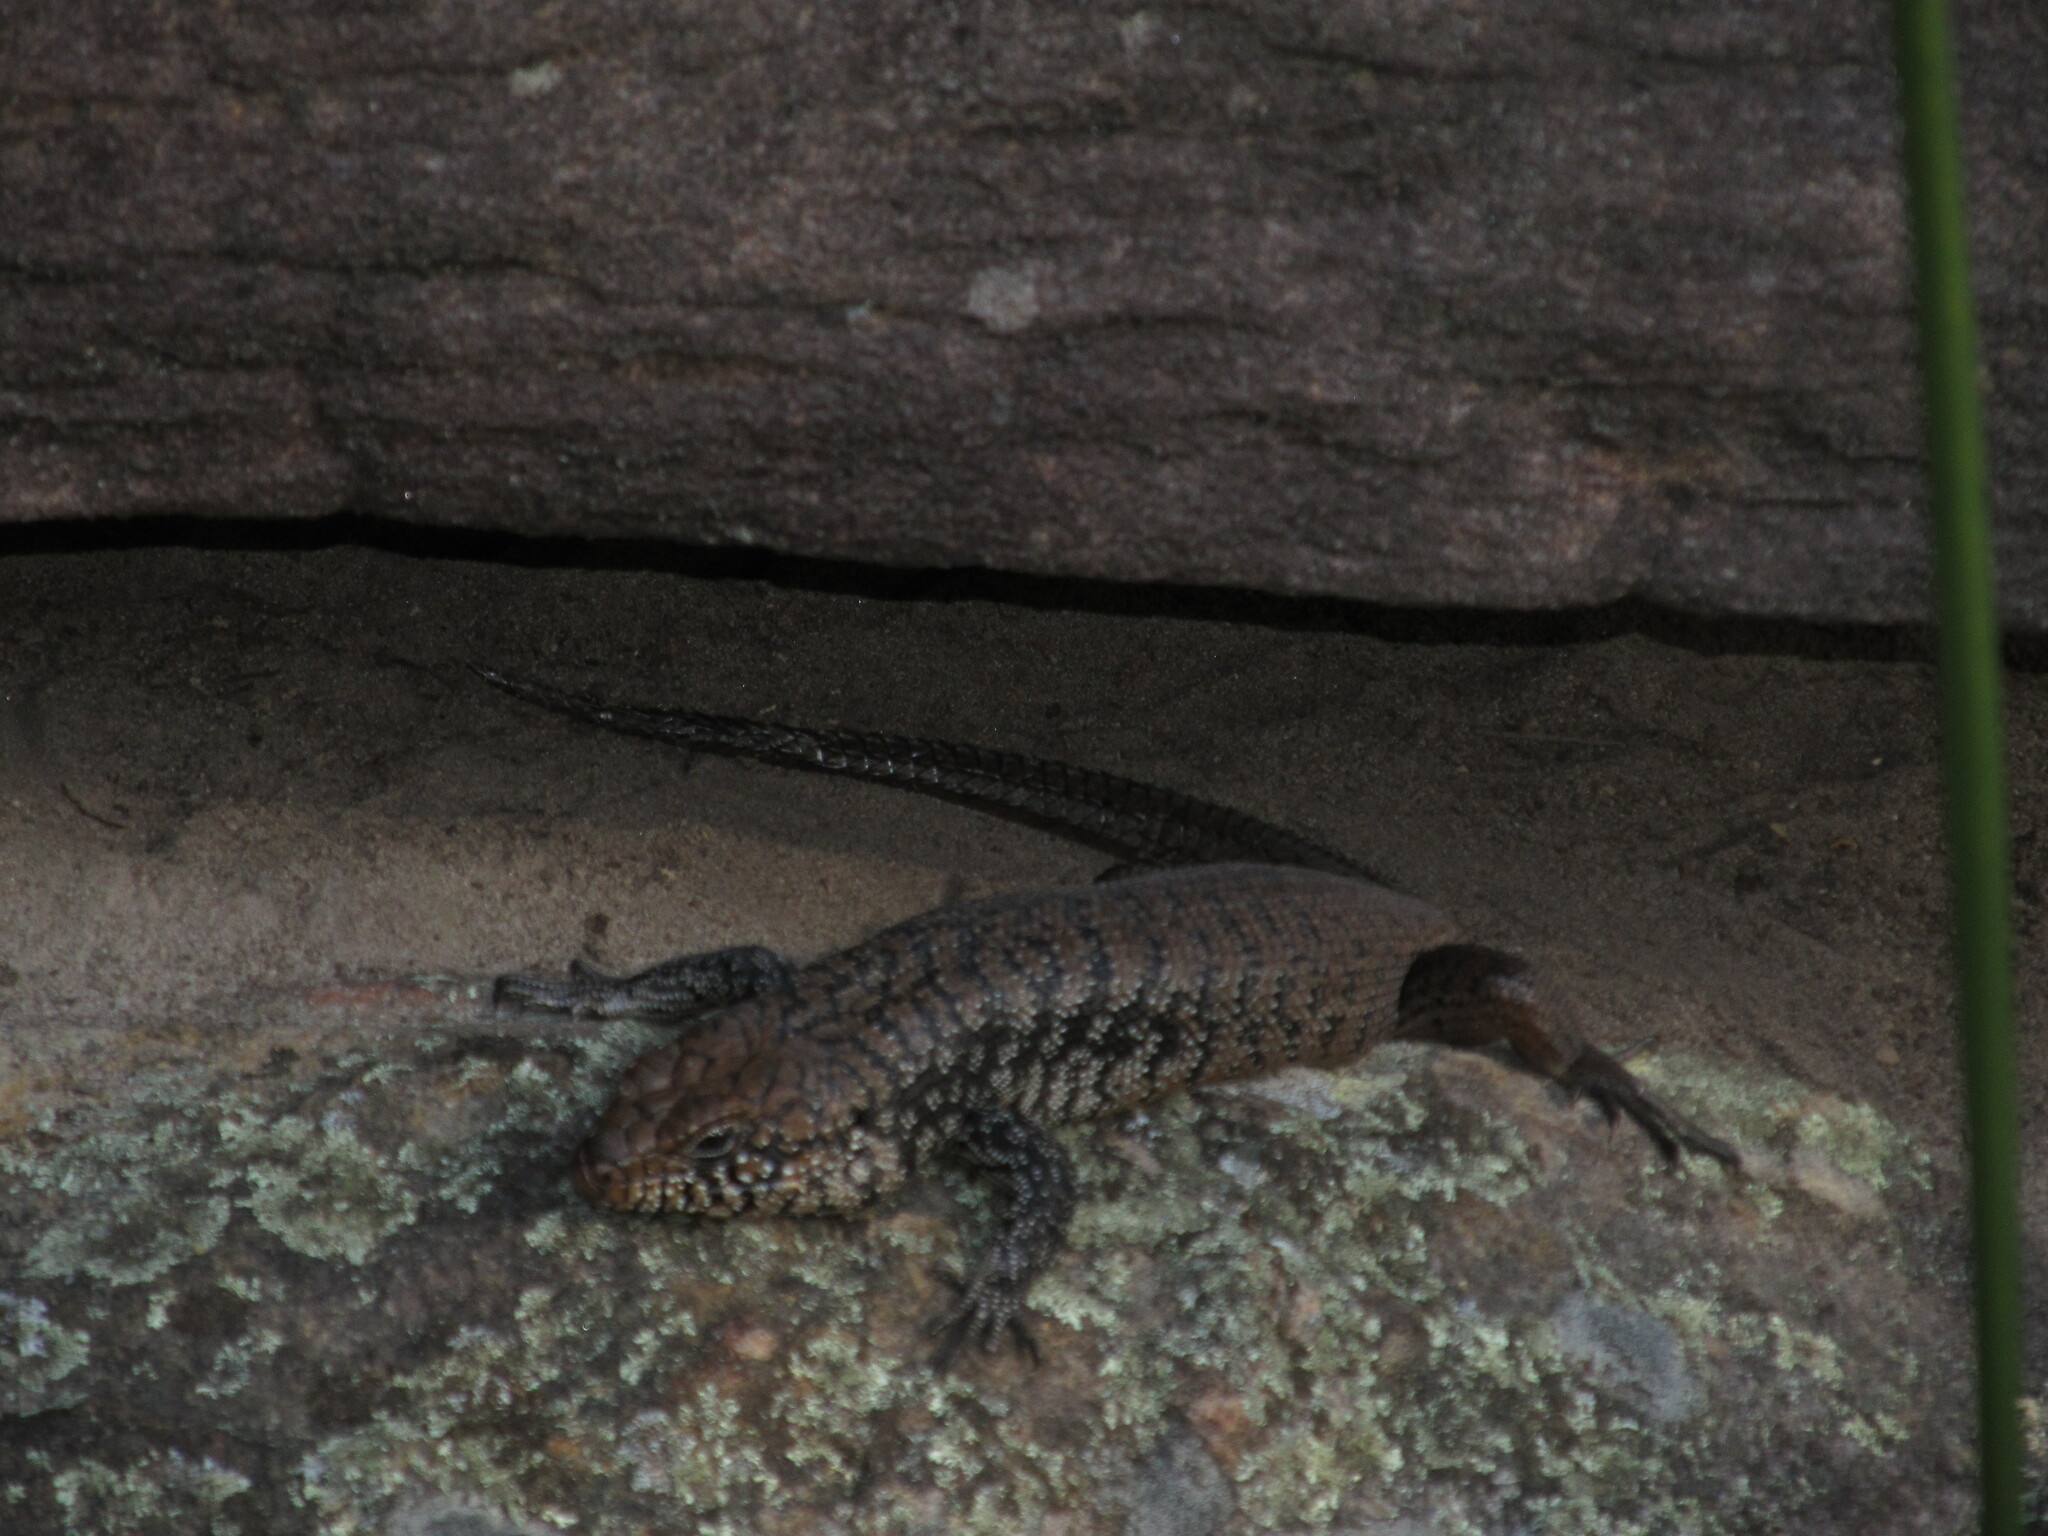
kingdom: Animalia
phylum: Chordata
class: Squamata
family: Scincidae
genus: Egernia
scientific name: Egernia cunninghami
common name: Cunningham's skink
